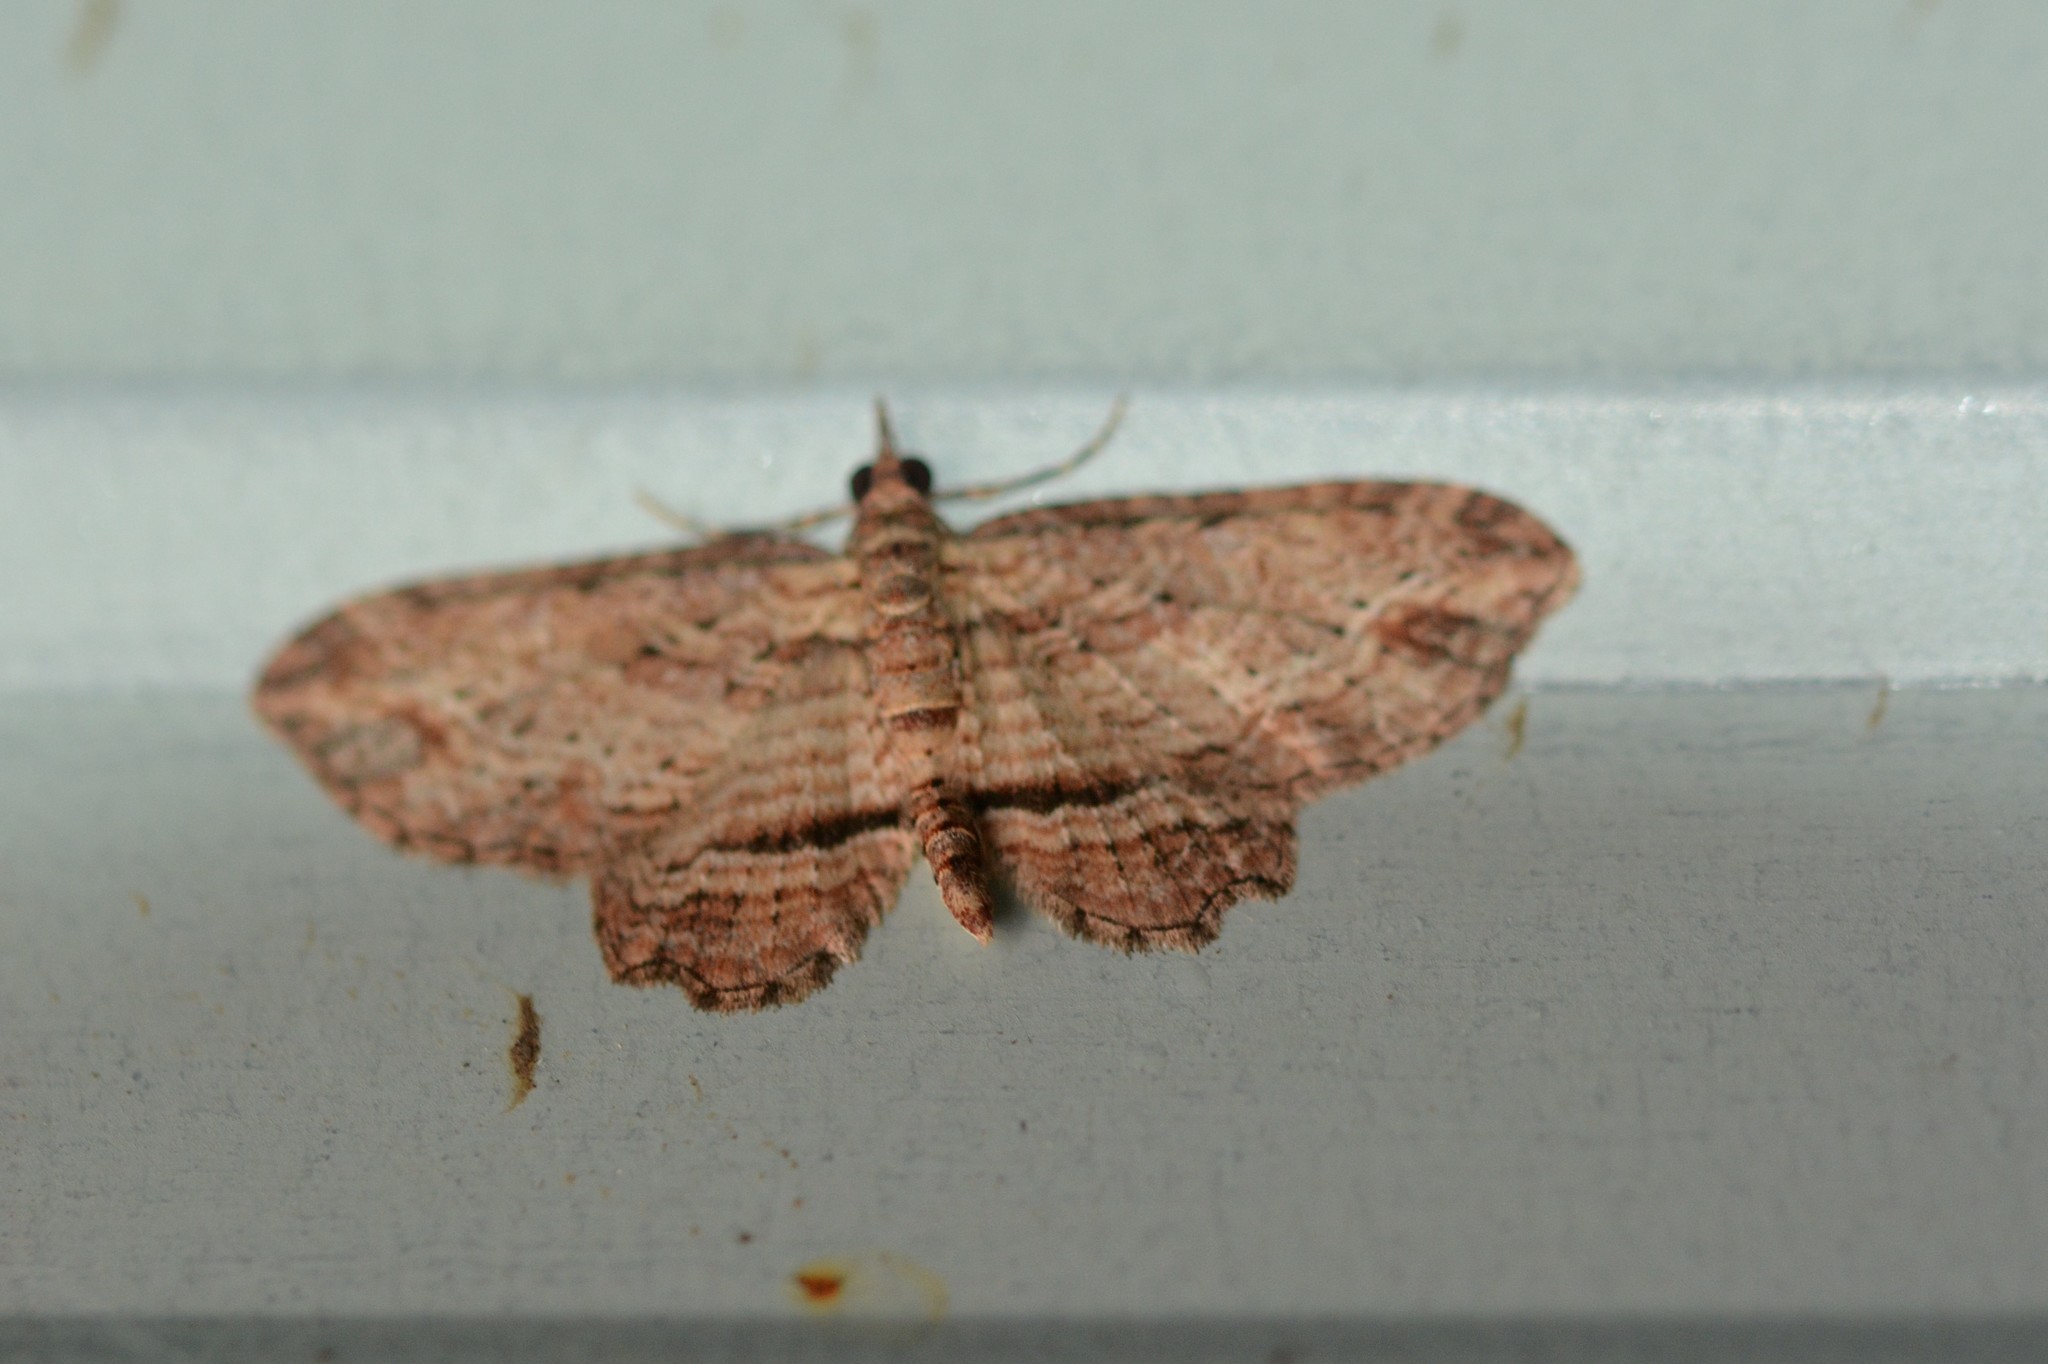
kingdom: Animalia
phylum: Arthropoda
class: Insecta
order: Lepidoptera
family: Geometridae
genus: Chloroclystis
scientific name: Chloroclystis filata
